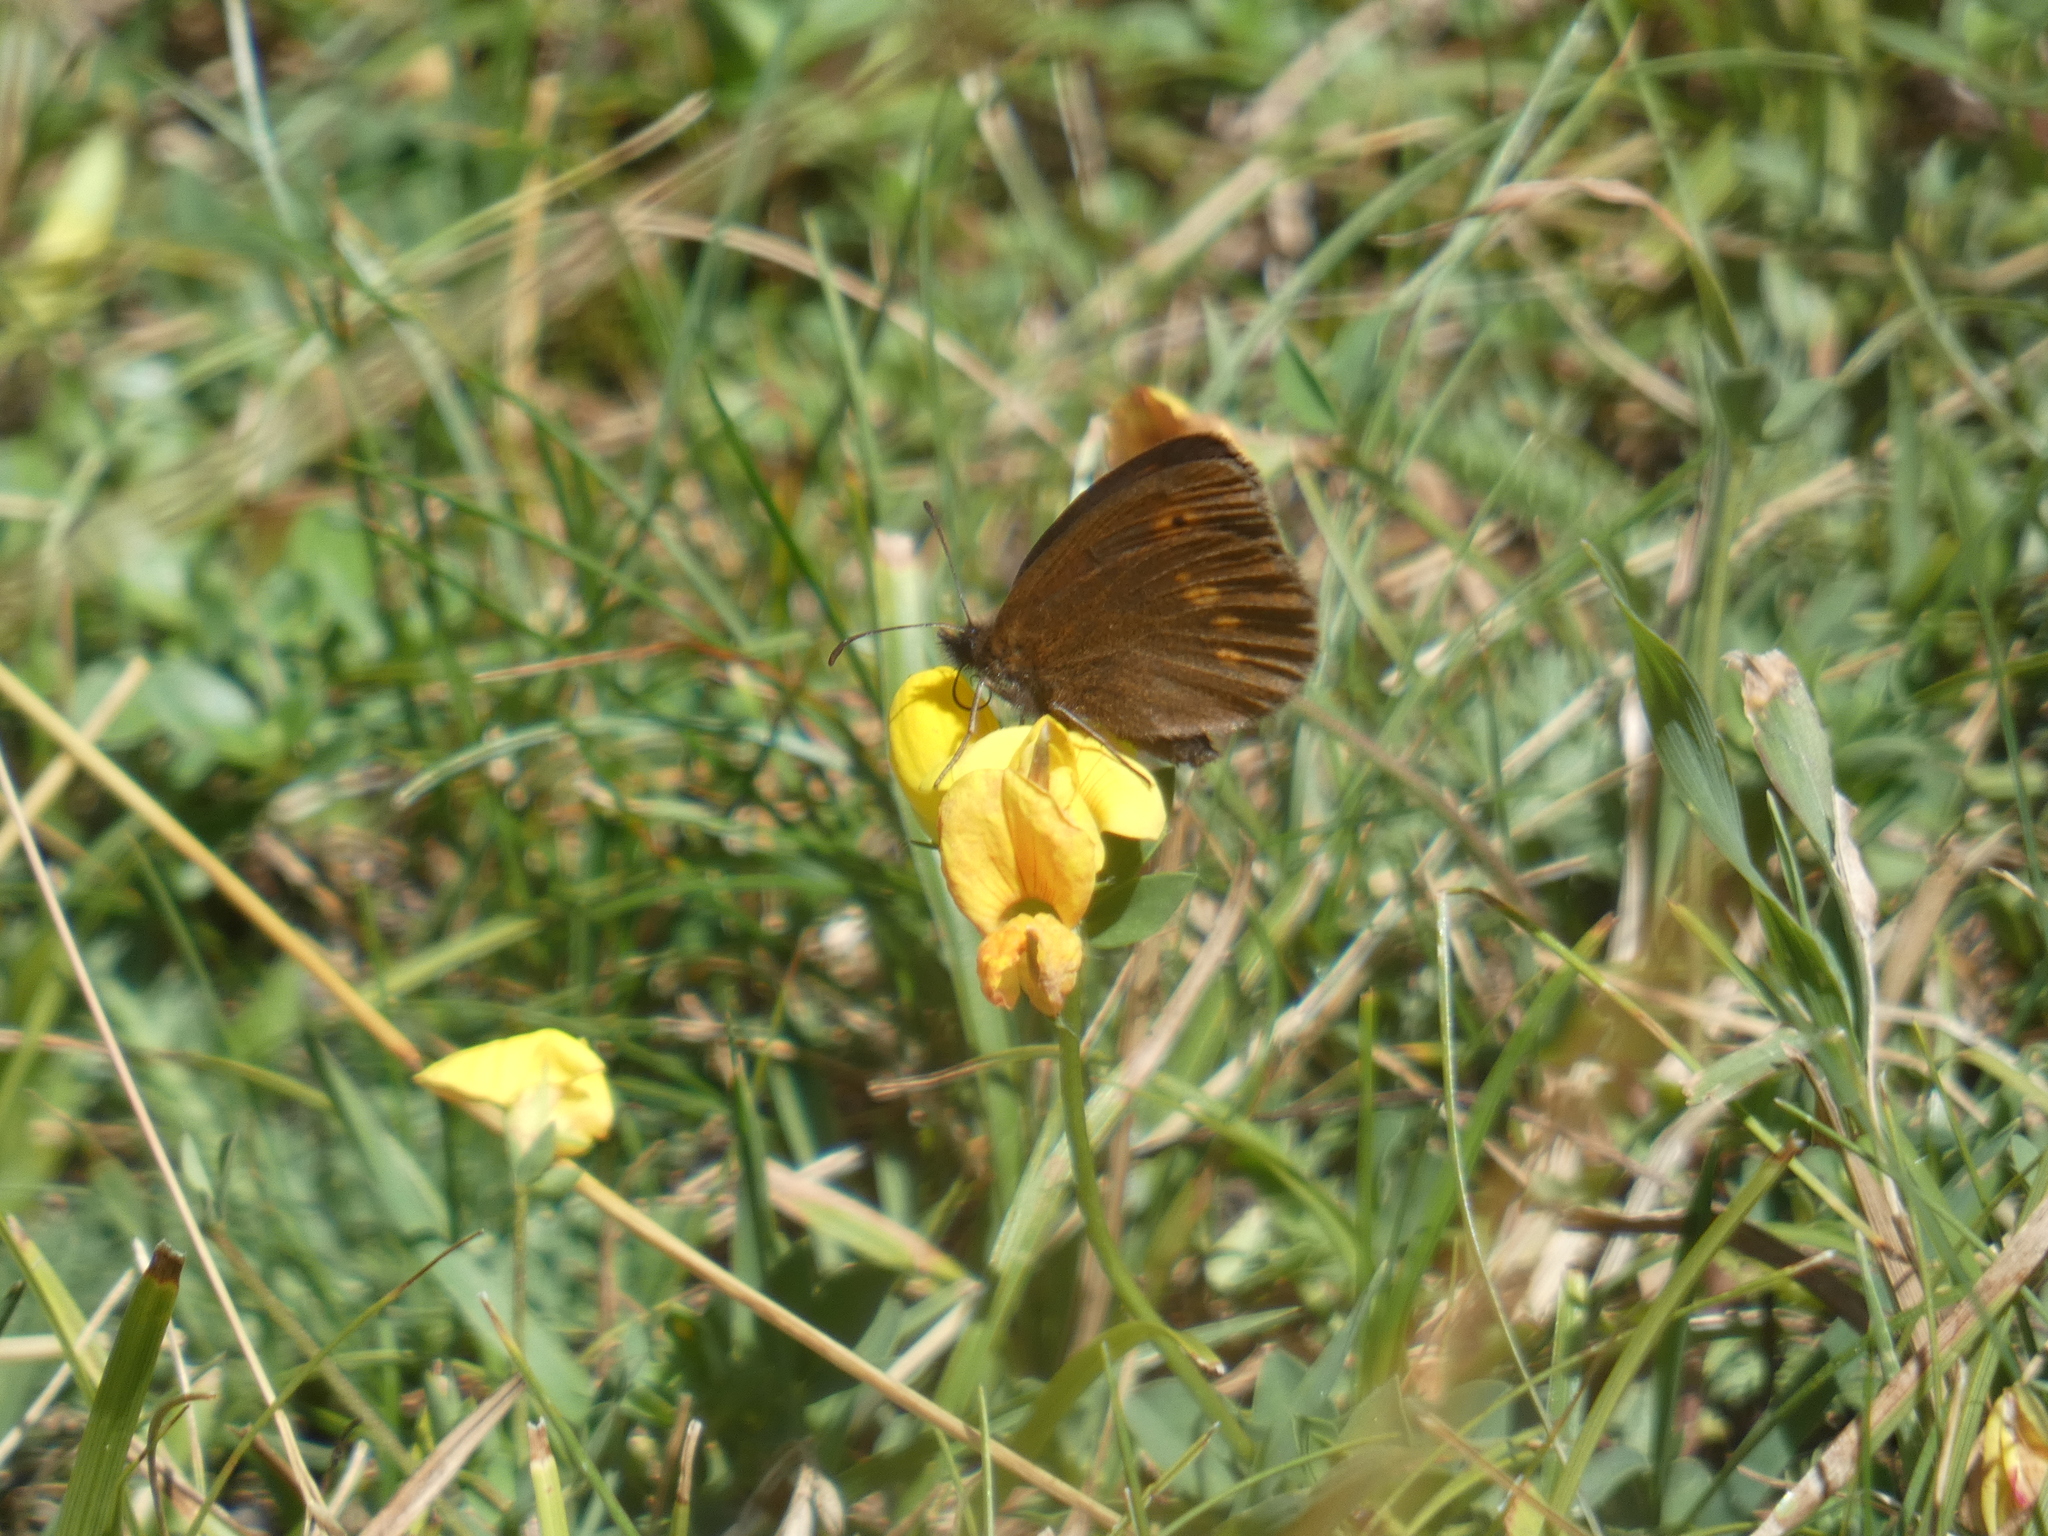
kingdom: Animalia
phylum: Arthropoda
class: Insecta
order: Lepidoptera
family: Nymphalidae
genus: Erebia
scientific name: Erebia melampus
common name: Lesser mountain ringlet
